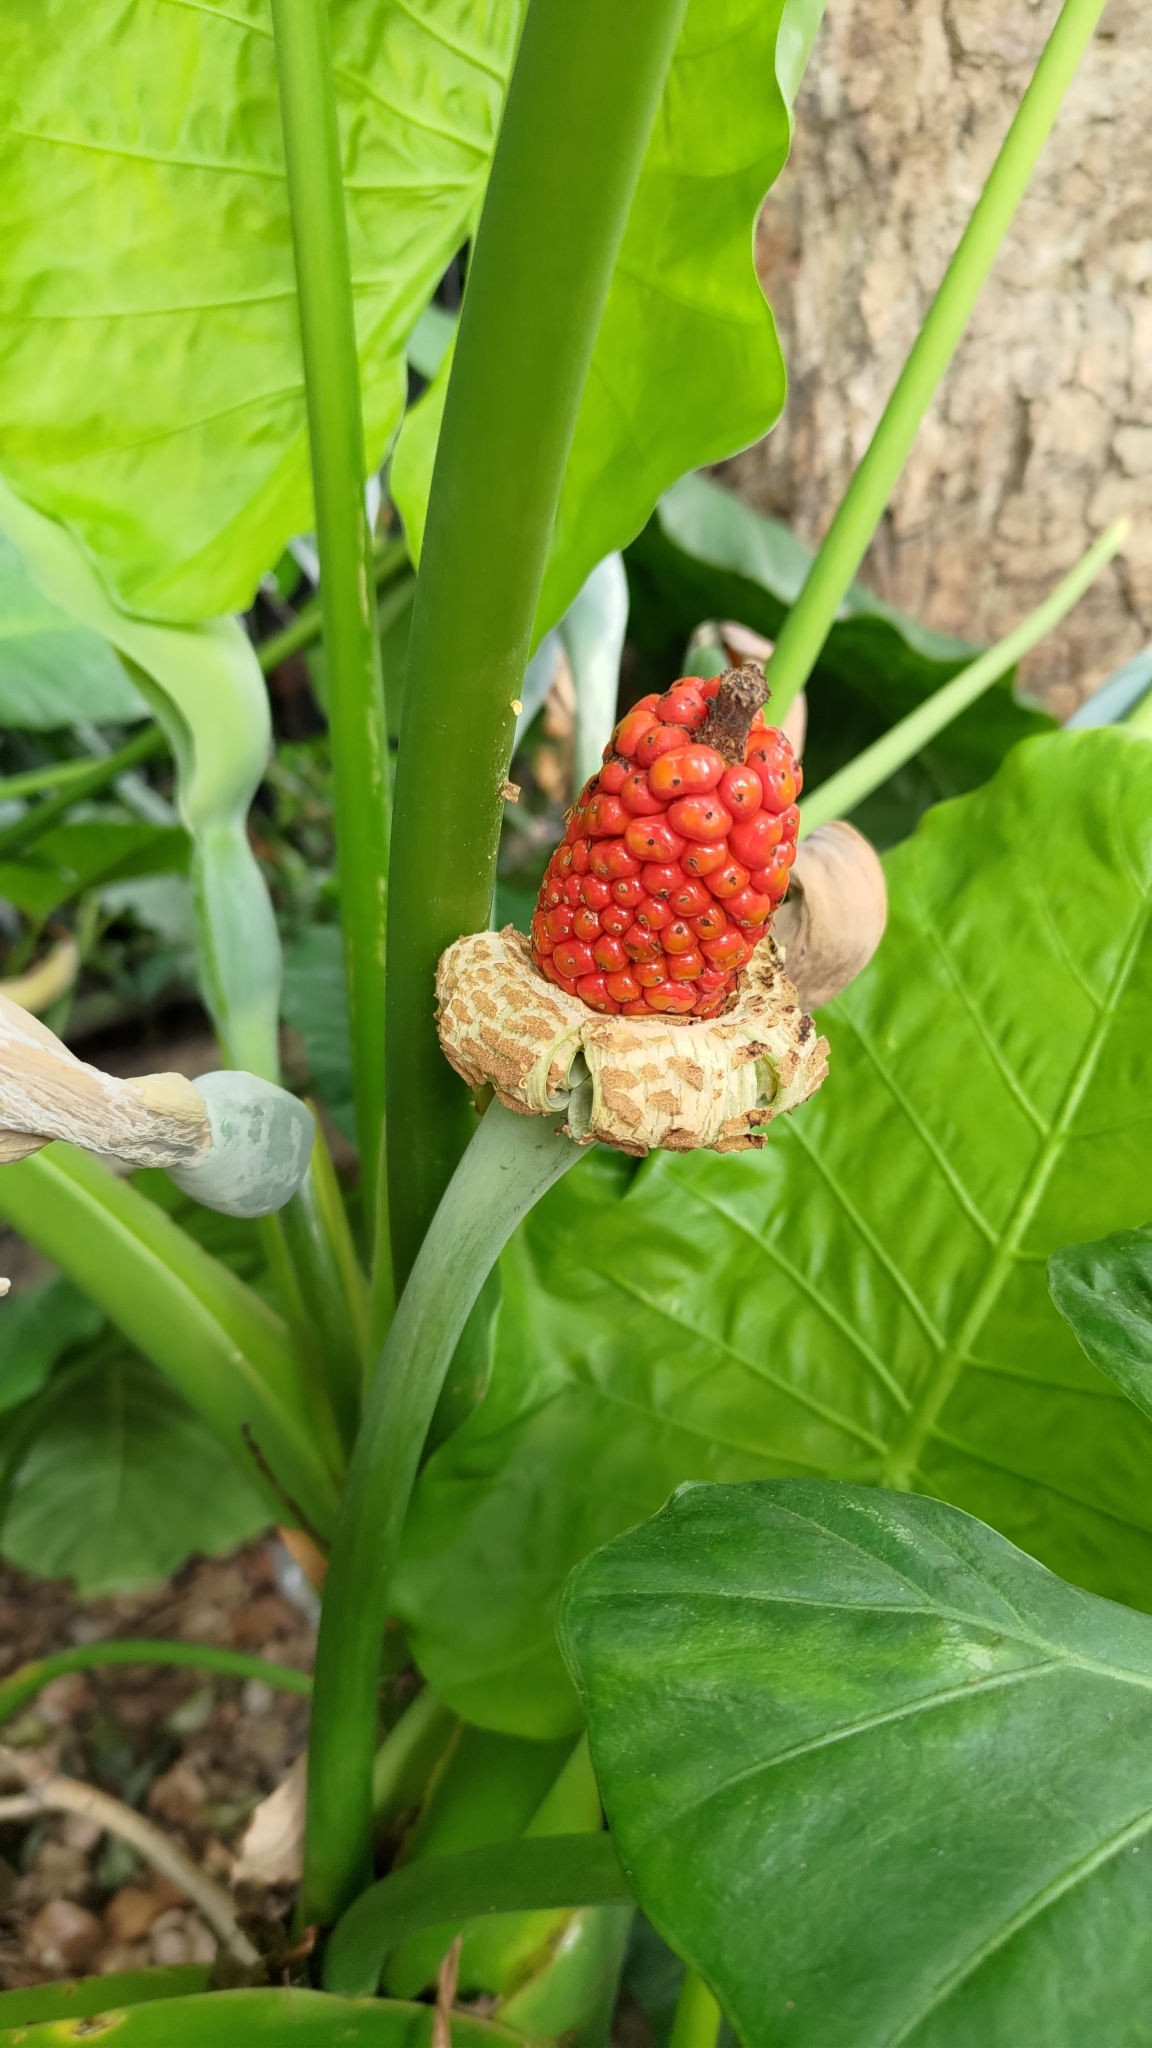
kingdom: Plantae
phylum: Tracheophyta
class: Liliopsida
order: Alismatales
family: Araceae
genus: Alocasia
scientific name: Alocasia odora
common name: Asian taro
